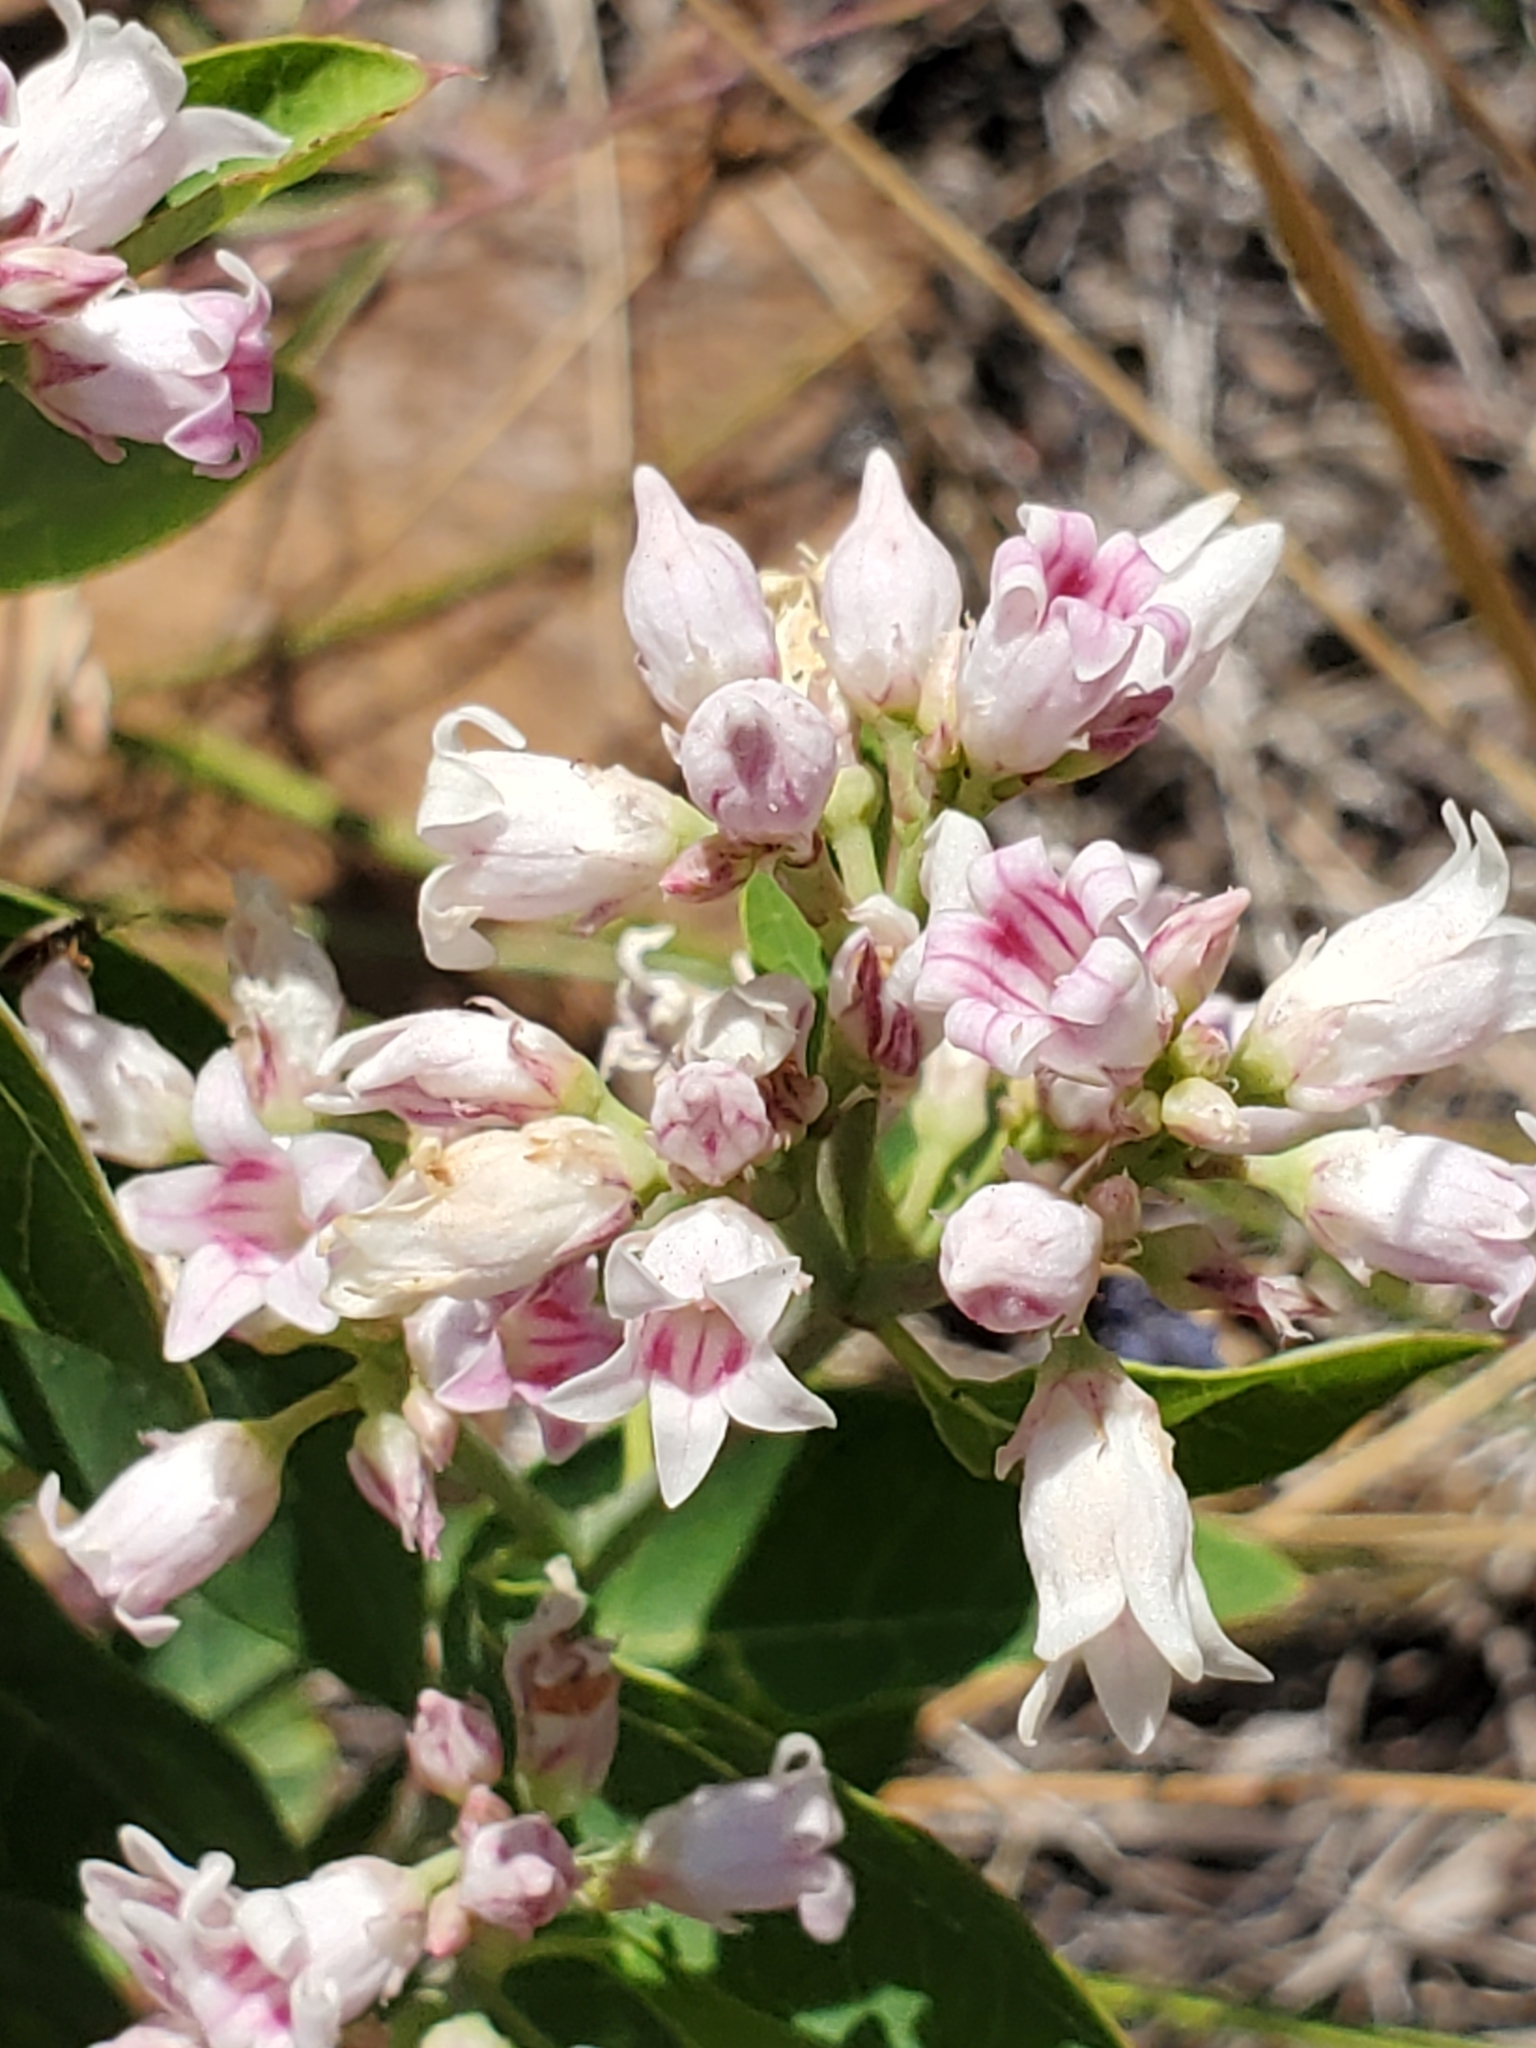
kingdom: Plantae
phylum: Tracheophyta
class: Magnoliopsida
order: Gentianales
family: Apocynaceae
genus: Apocynum
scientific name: Apocynum androsaemifolium
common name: Spreading dogbane
